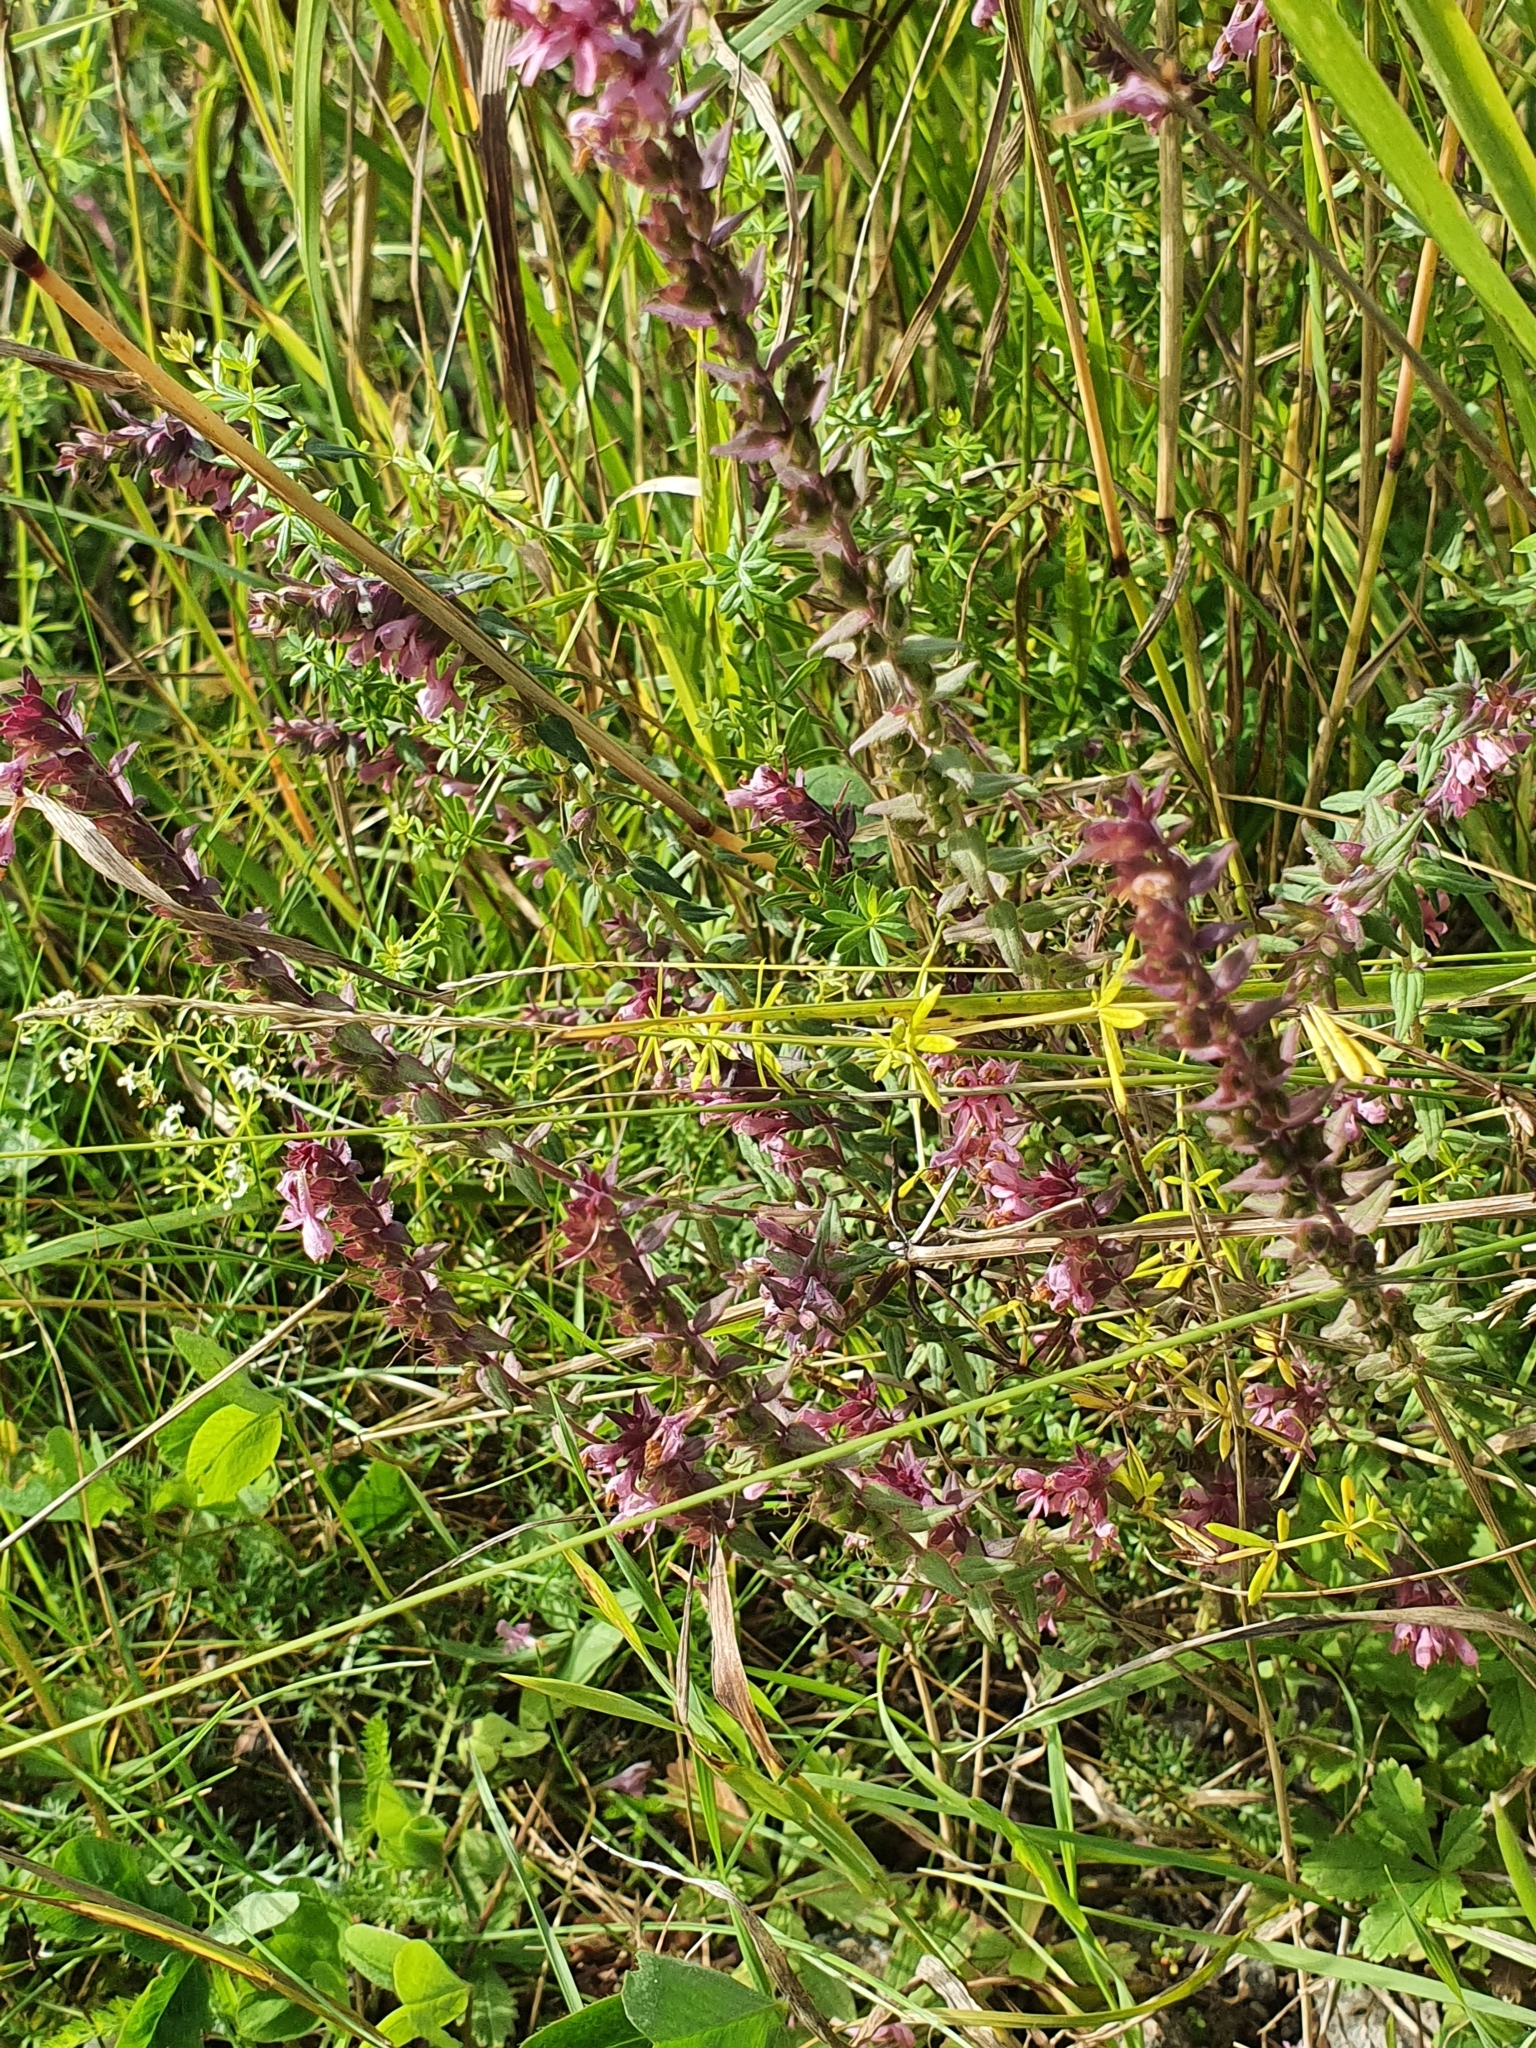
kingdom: Plantae
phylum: Tracheophyta
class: Magnoliopsida
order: Lamiales
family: Orobanchaceae
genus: Odontites
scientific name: Odontites vulgaris
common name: Broomrape
